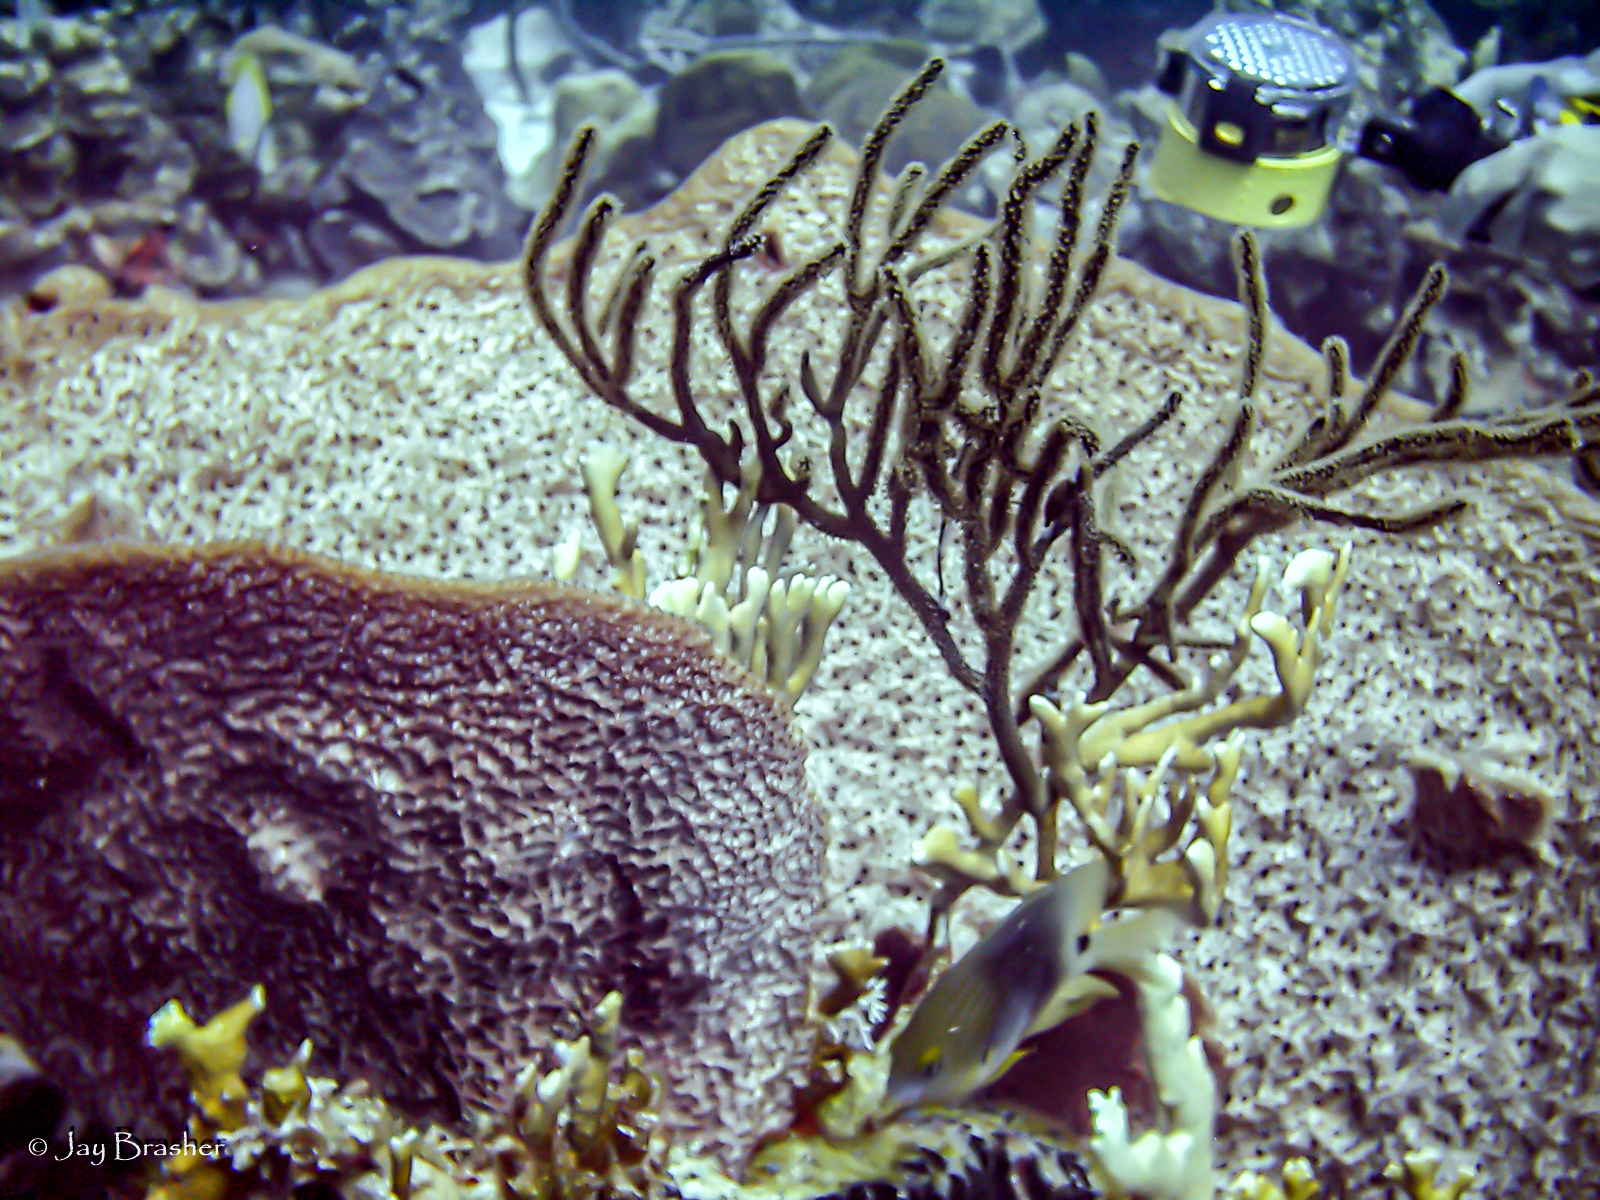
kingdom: Animalia
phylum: Porifera
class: Demospongiae
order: Dictyoceratida
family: Irciniidae
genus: Ircinia
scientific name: Ircinia campana
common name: Vase sponge
